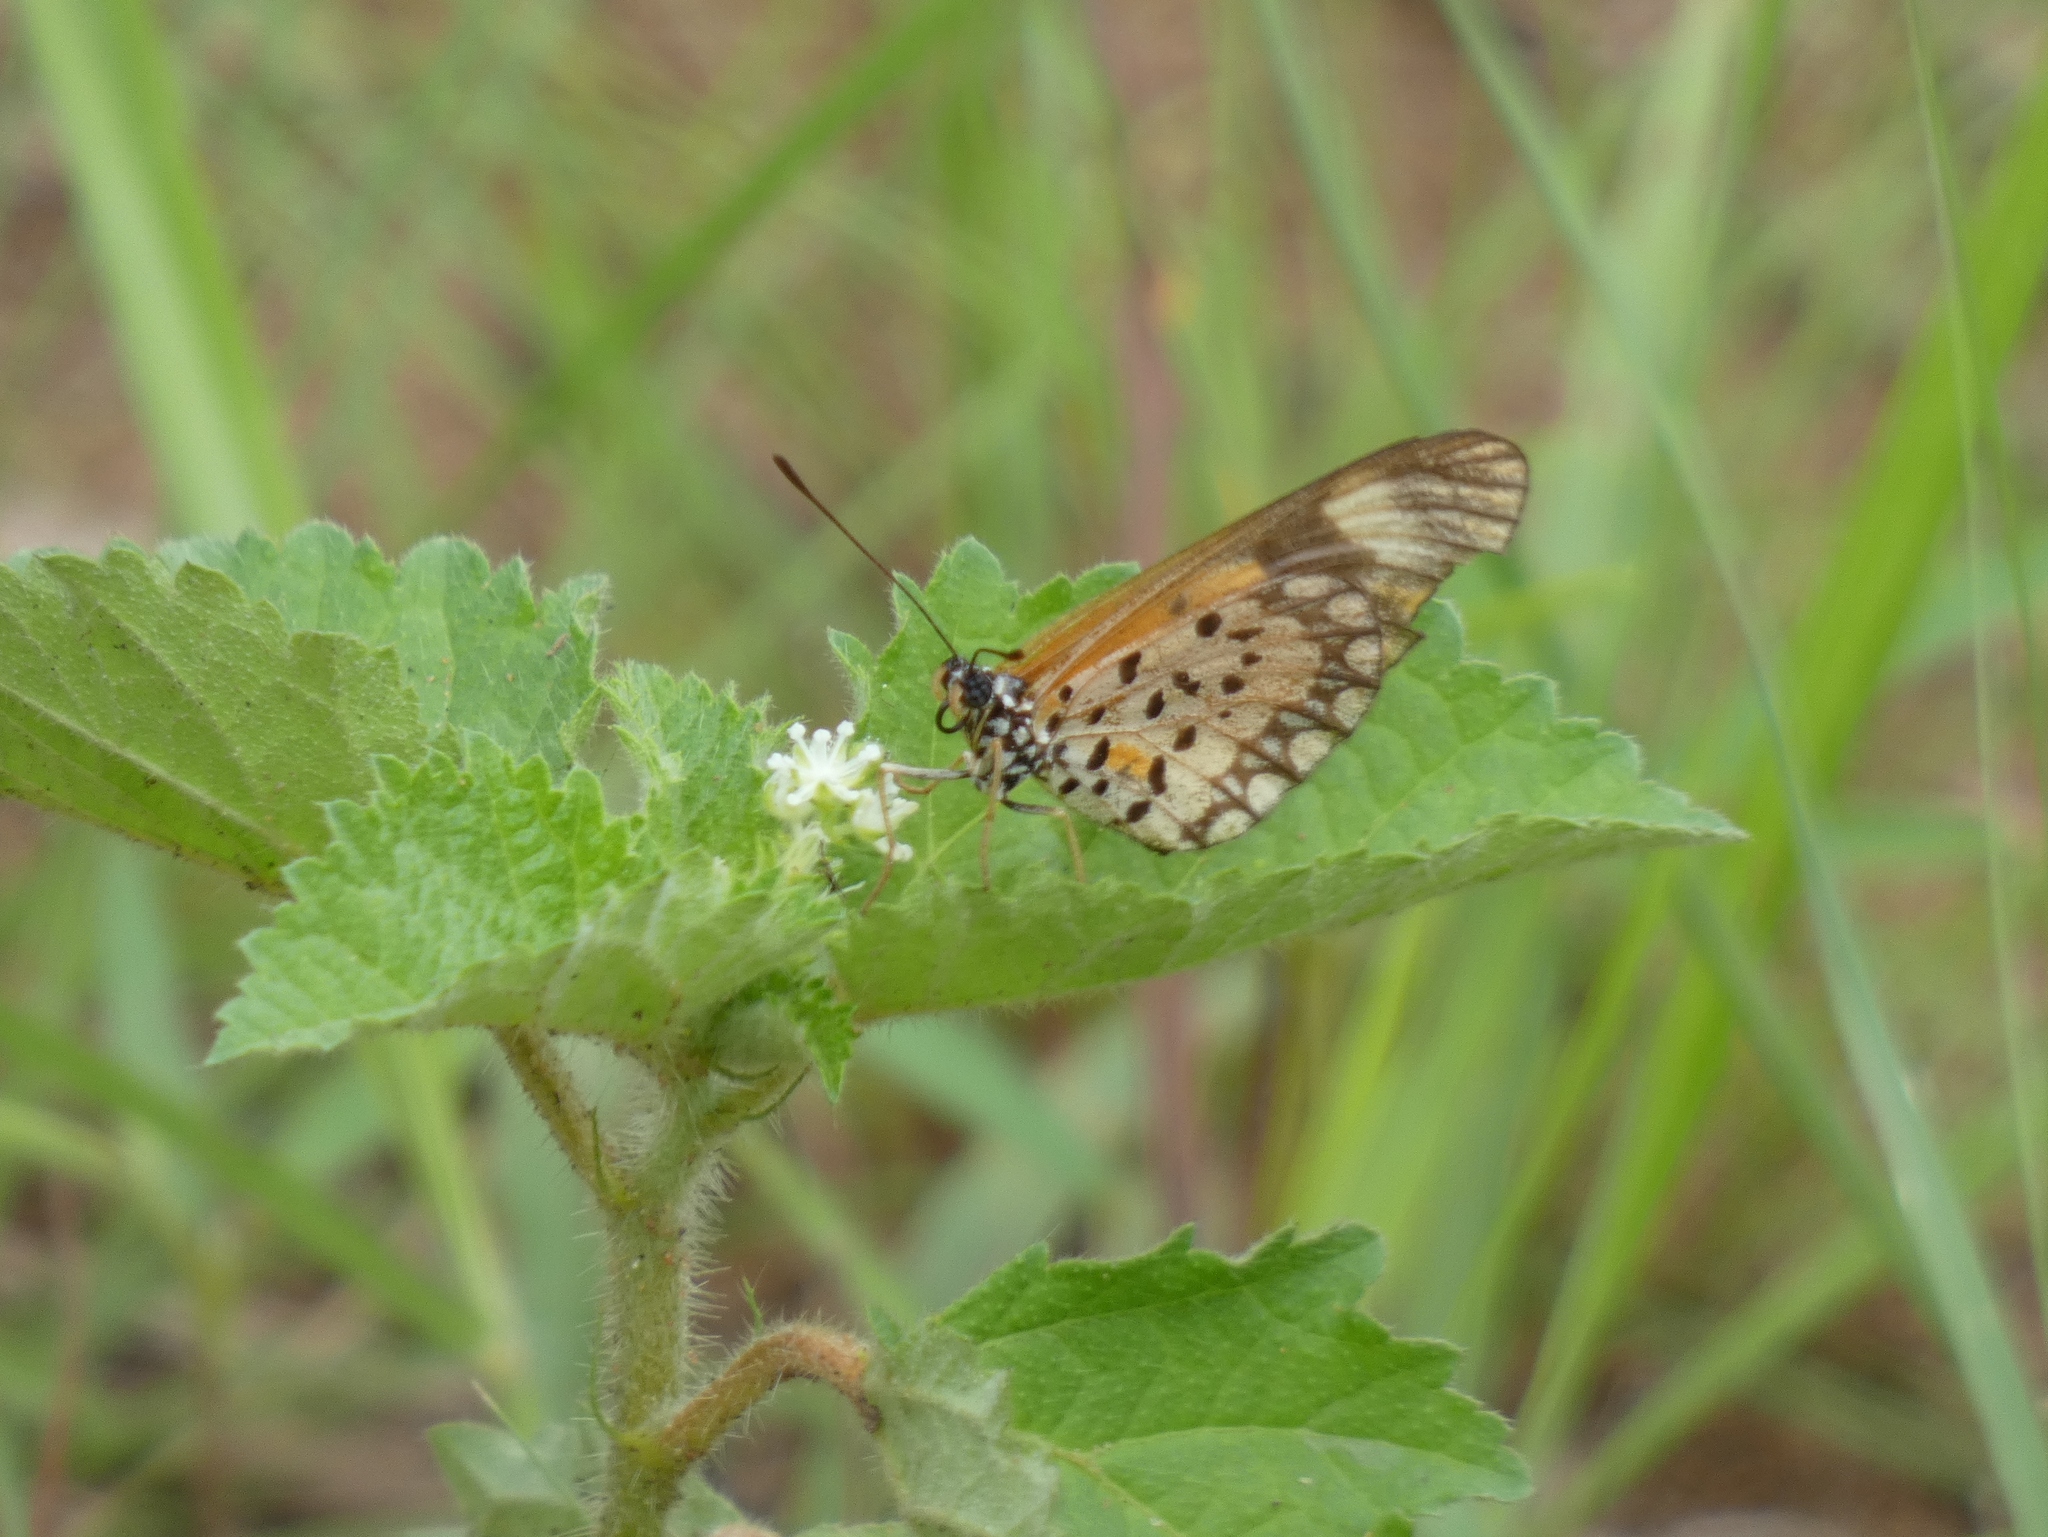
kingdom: Animalia
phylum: Arthropoda
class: Insecta
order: Lepidoptera
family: Nymphalidae
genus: Acraea
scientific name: Acraea Telchinia serena
